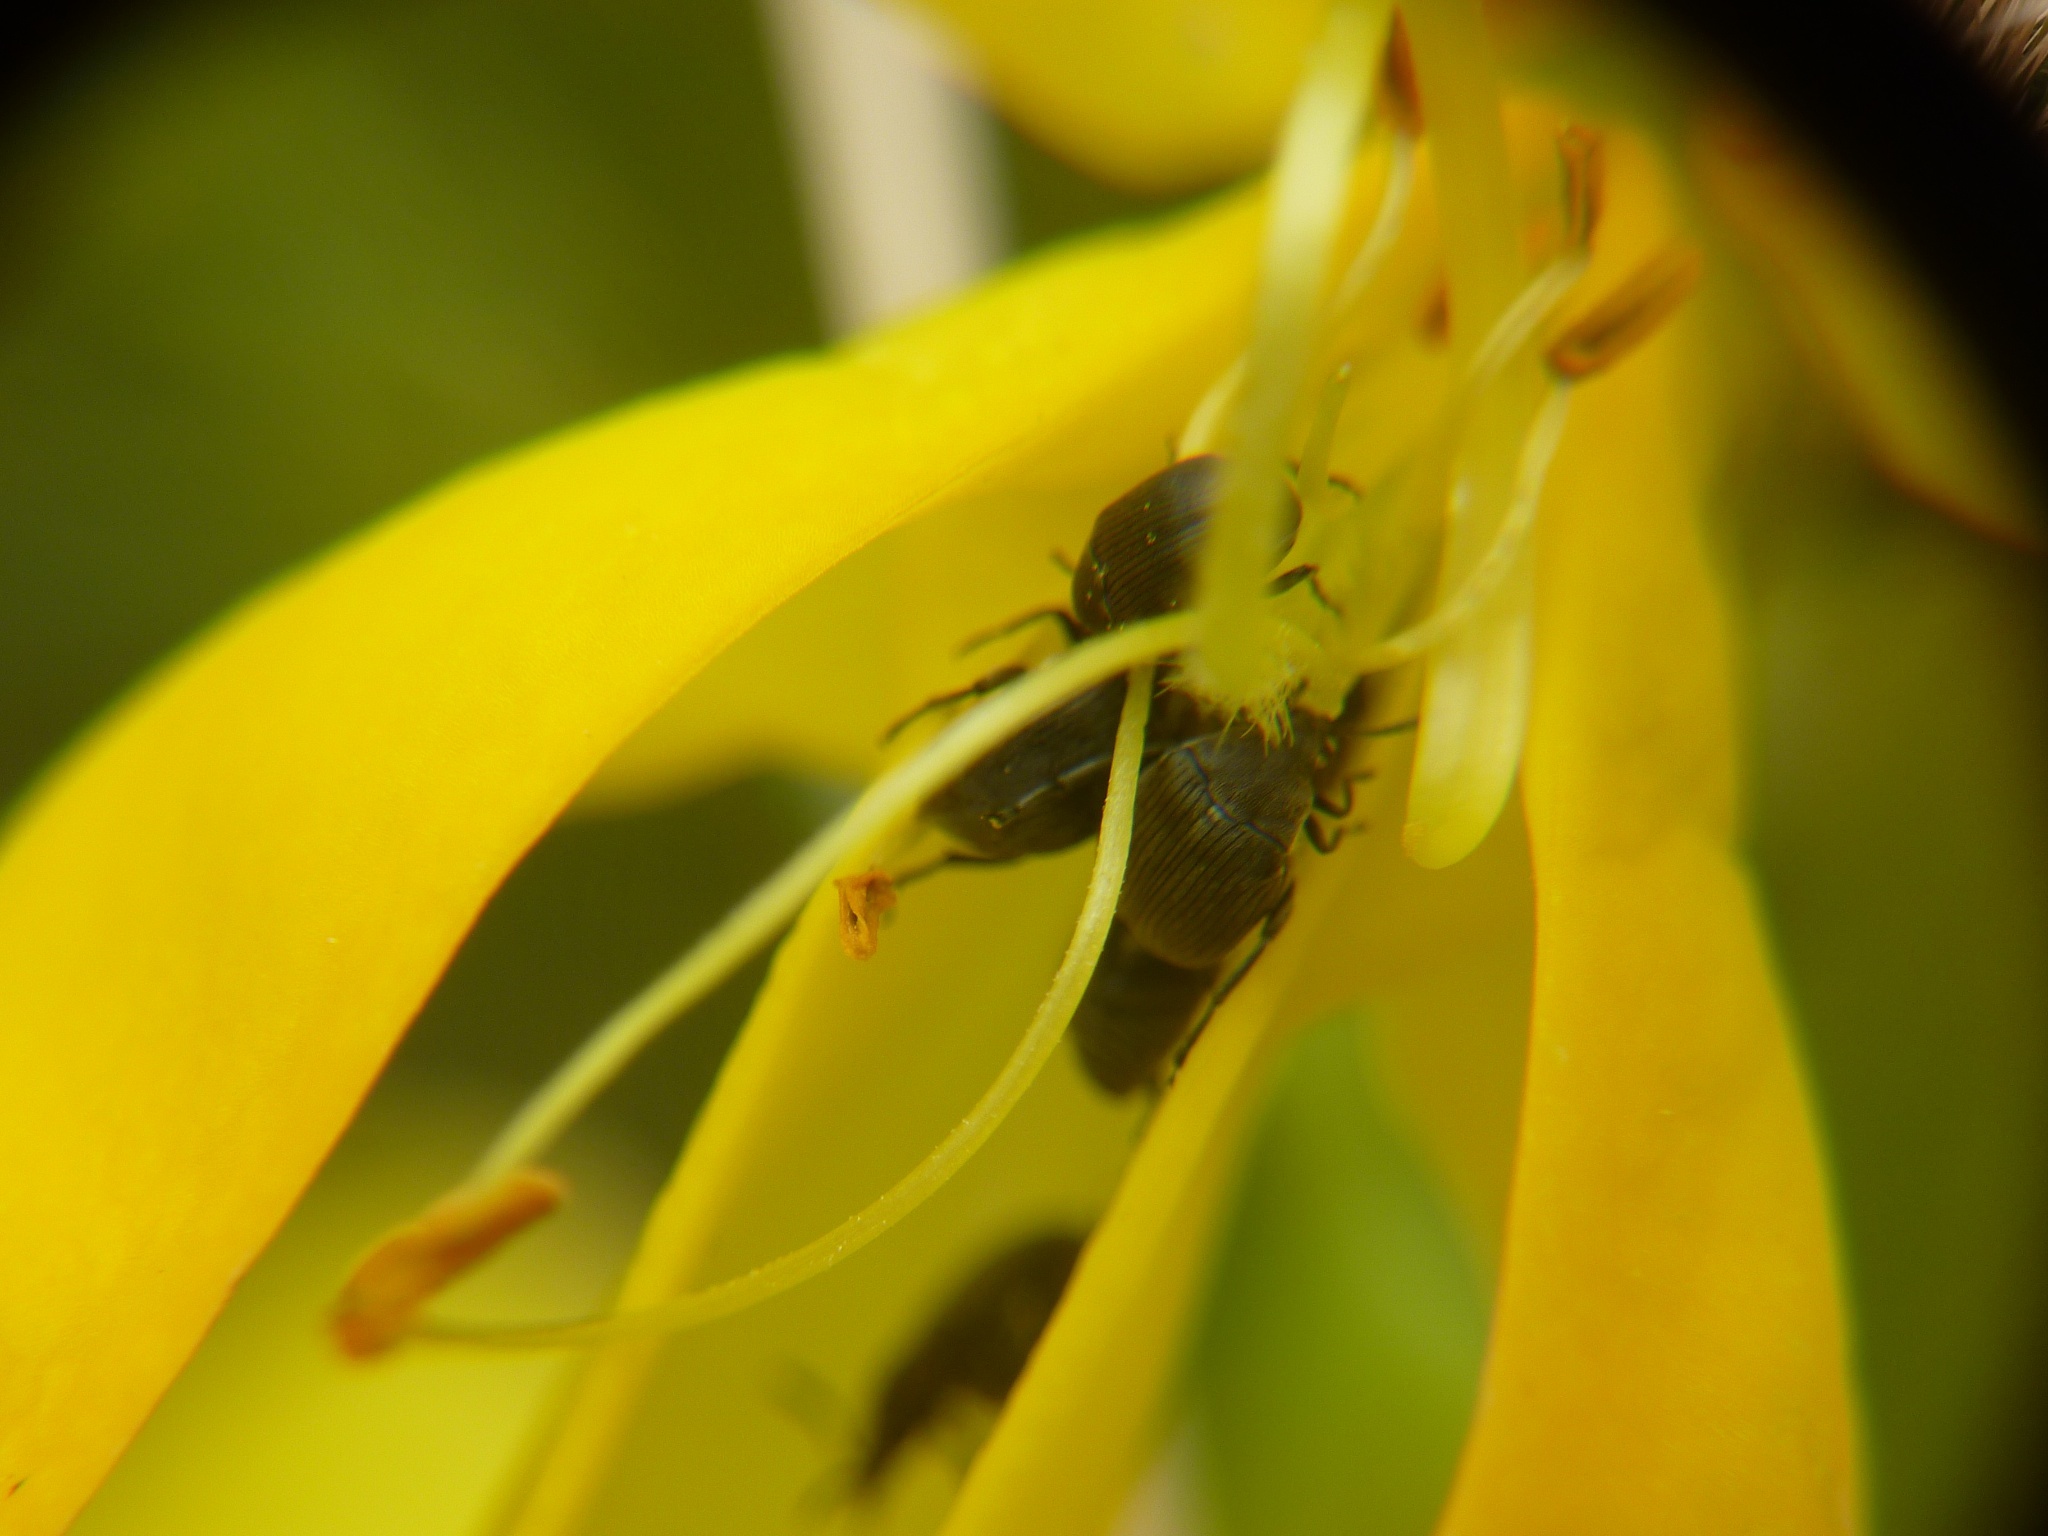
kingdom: Animalia
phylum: Arthropoda
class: Insecta
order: Coleoptera
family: Chrysomelidae
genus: Bruchidius
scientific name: Bruchidius villosus
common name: Scotch broom bruchid
